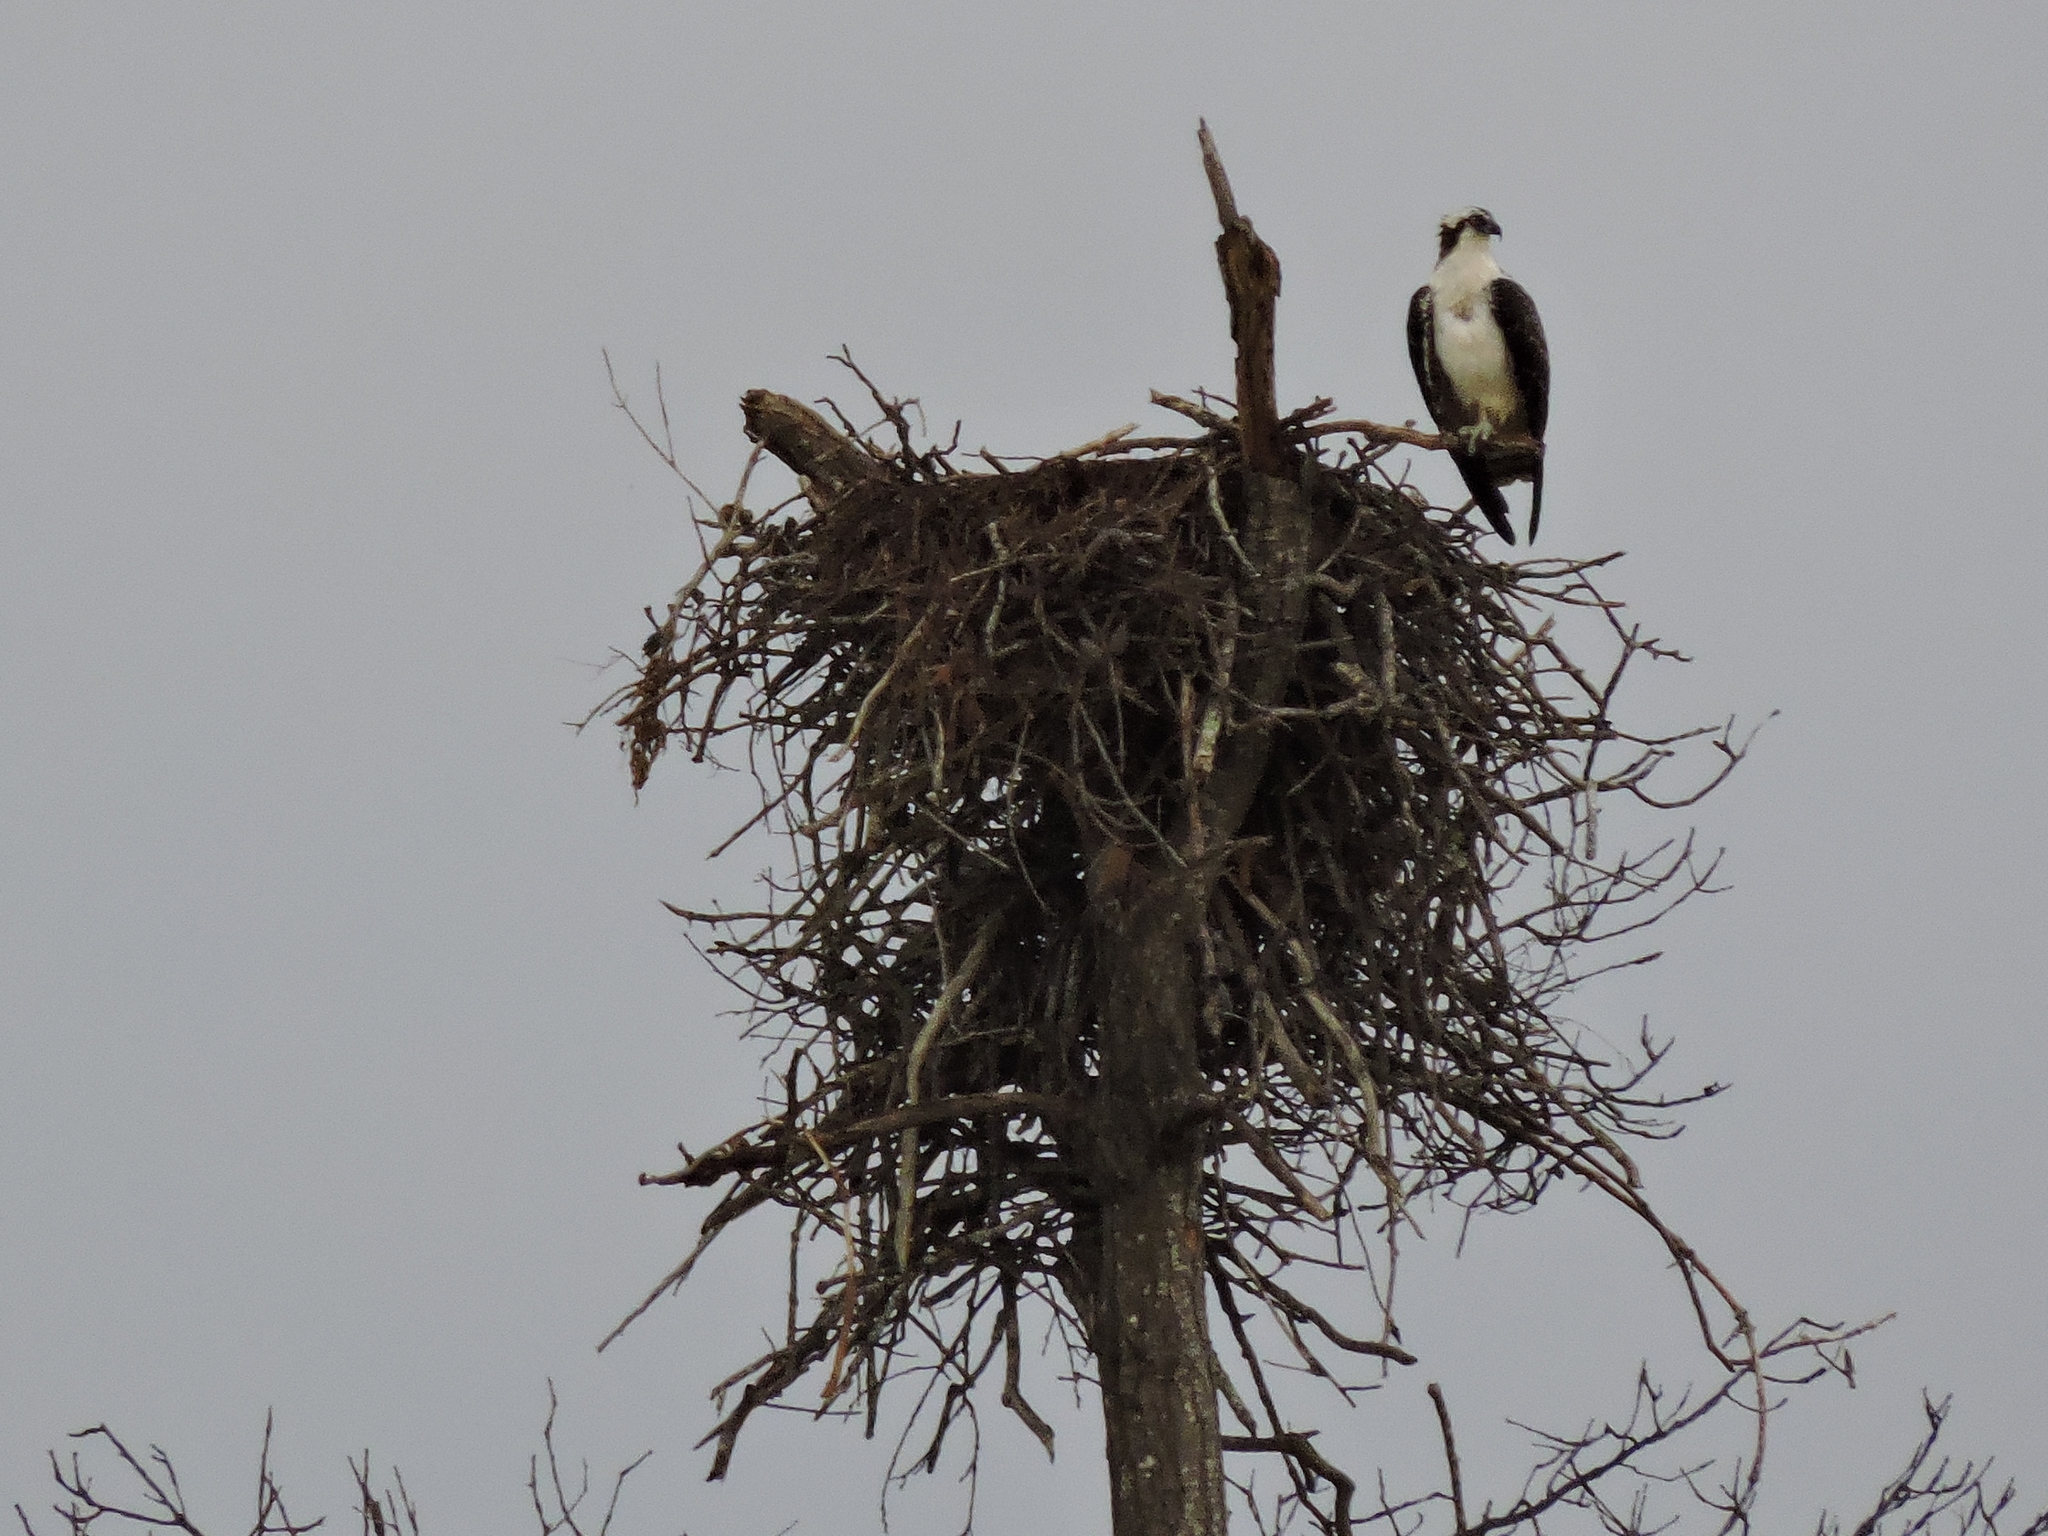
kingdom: Animalia
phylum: Chordata
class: Aves
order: Accipitriformes
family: Pandionidae
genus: Pandion
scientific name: Pandion haliaetus
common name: Osprey
